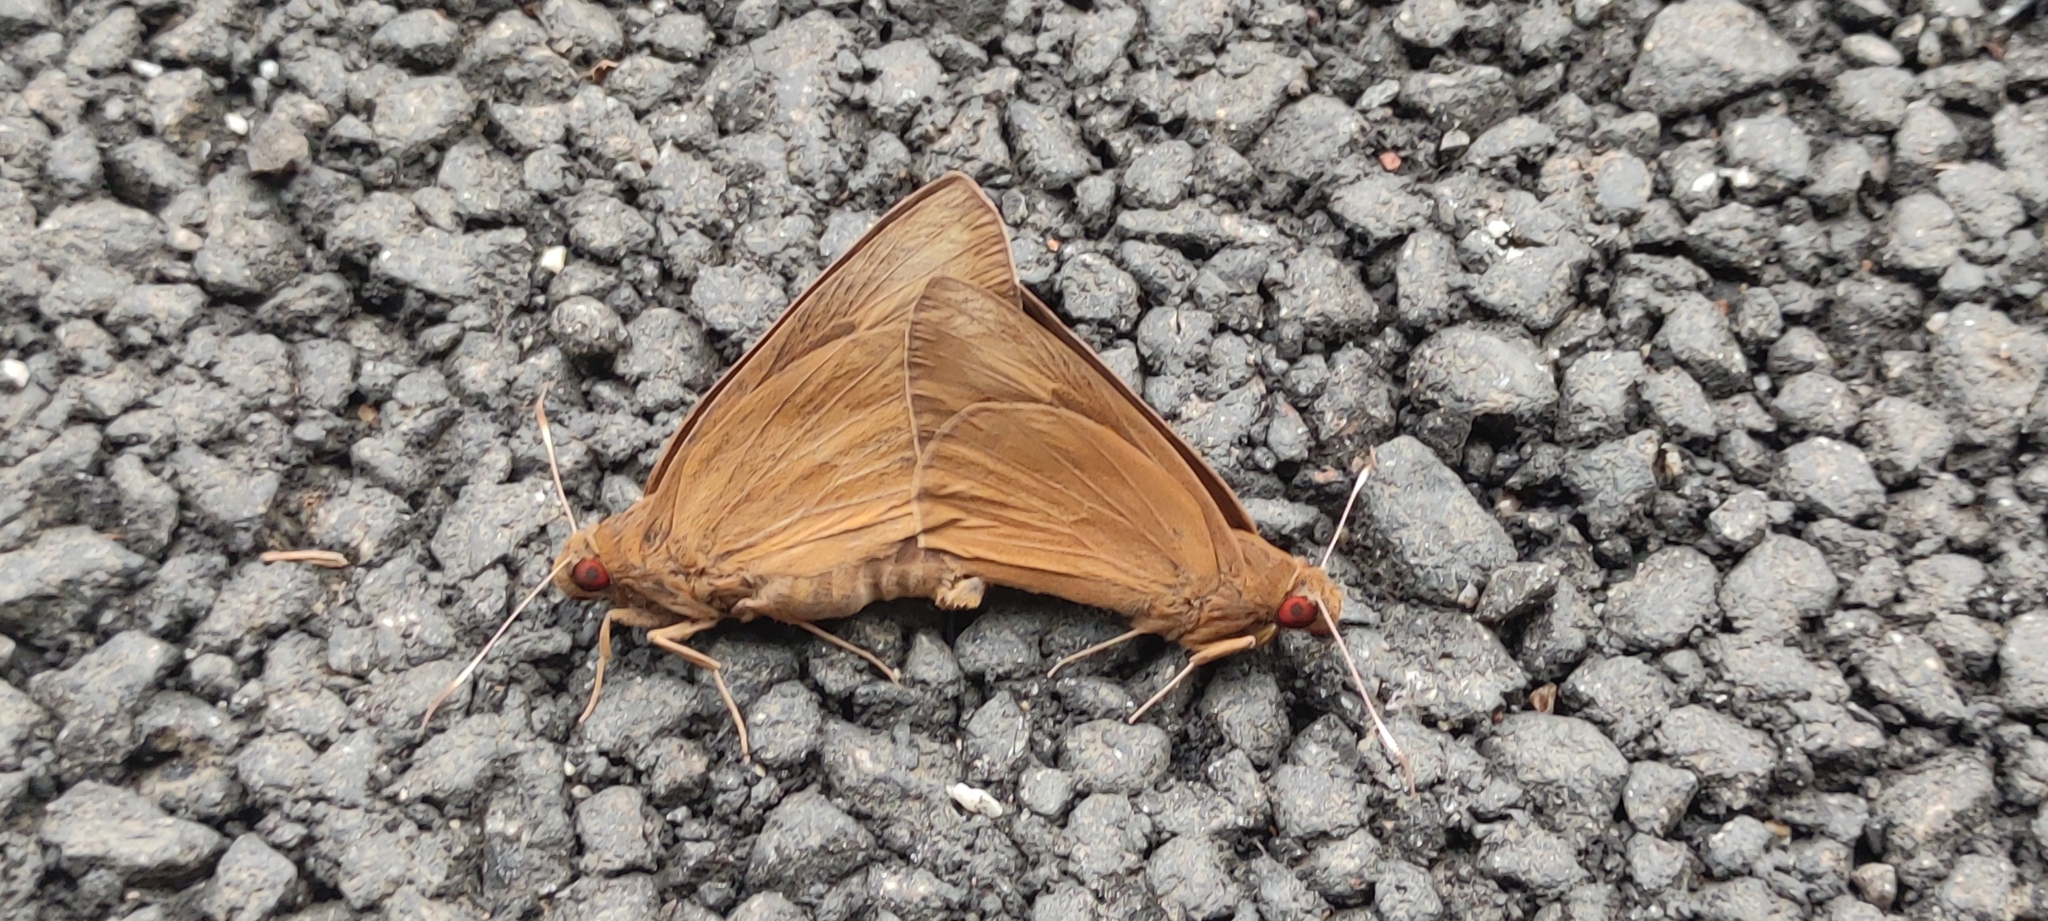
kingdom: Animalia
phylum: Arthropoda
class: Insecta
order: Lepidoptera
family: Hesperiidae
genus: Erionota
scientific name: Erionota torus
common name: Rounded palm-redeye
